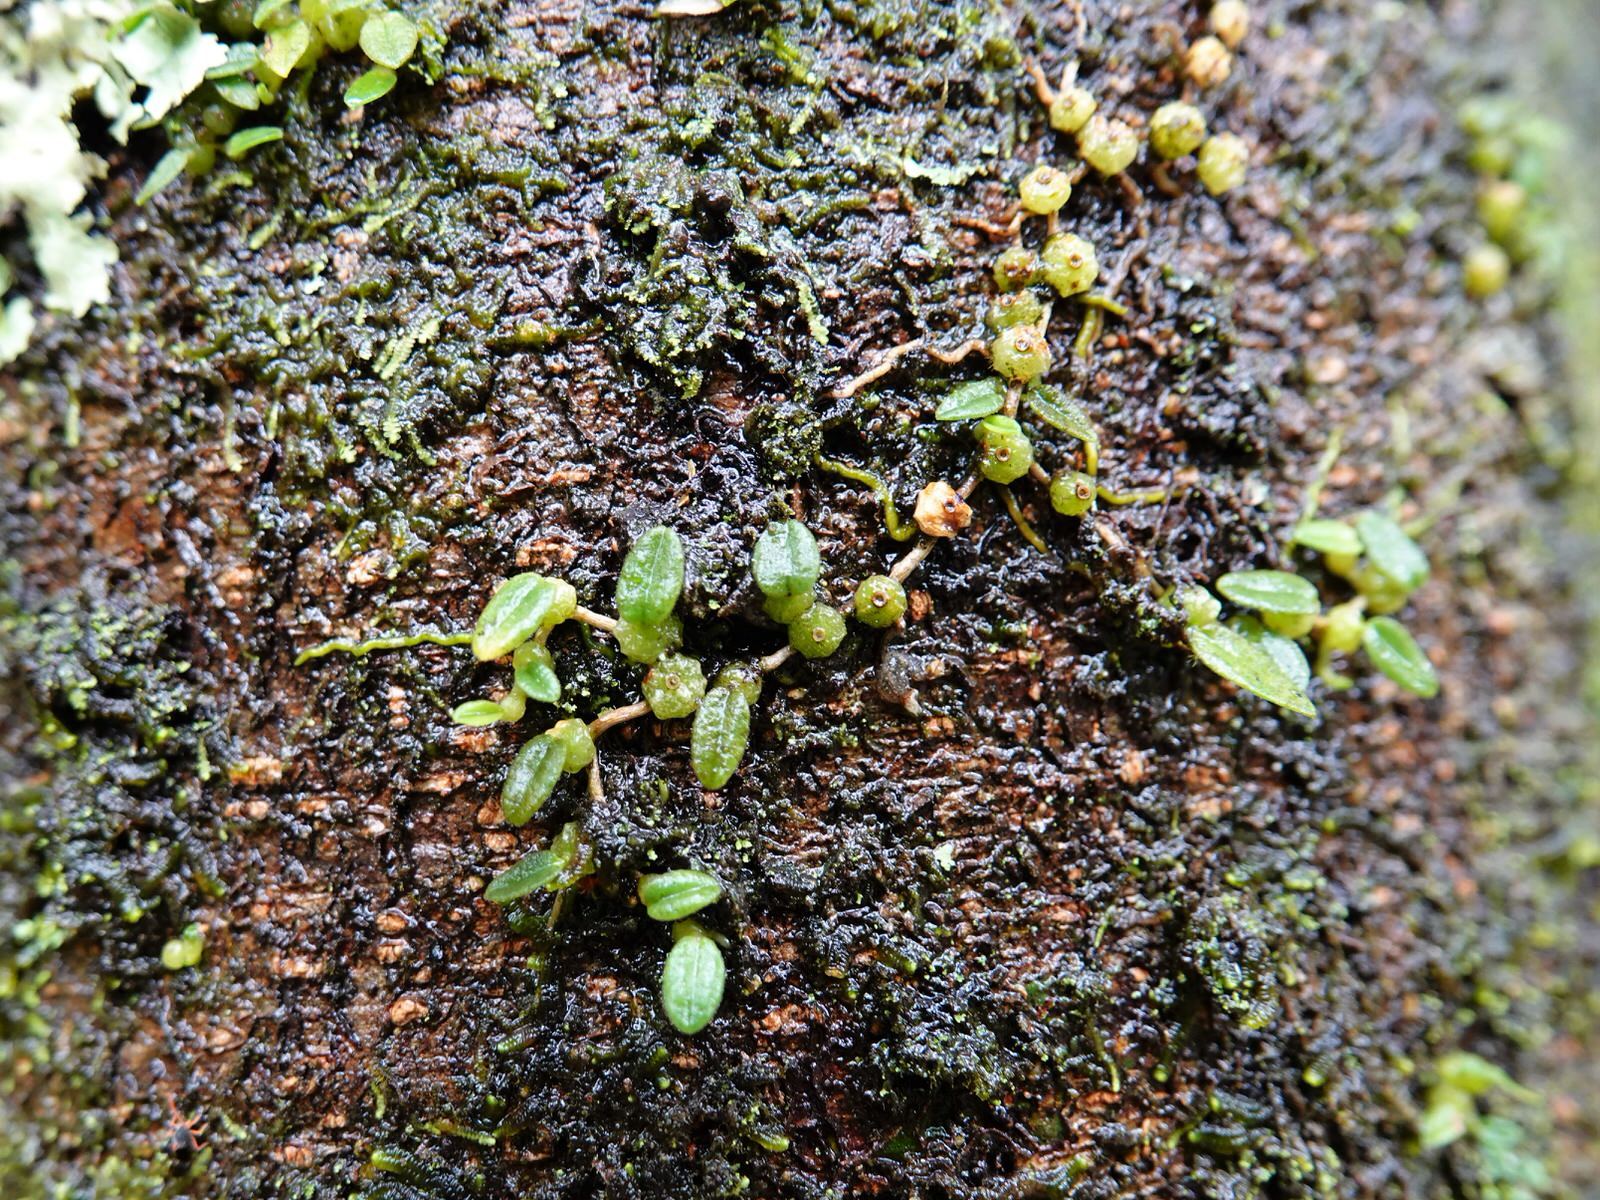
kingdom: Plantae
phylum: Tracheophyta
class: Liliopsida
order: Asparagales
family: Orchidaceae
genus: Bulbophyllum
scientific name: Bulbophyllum pygmaeum
